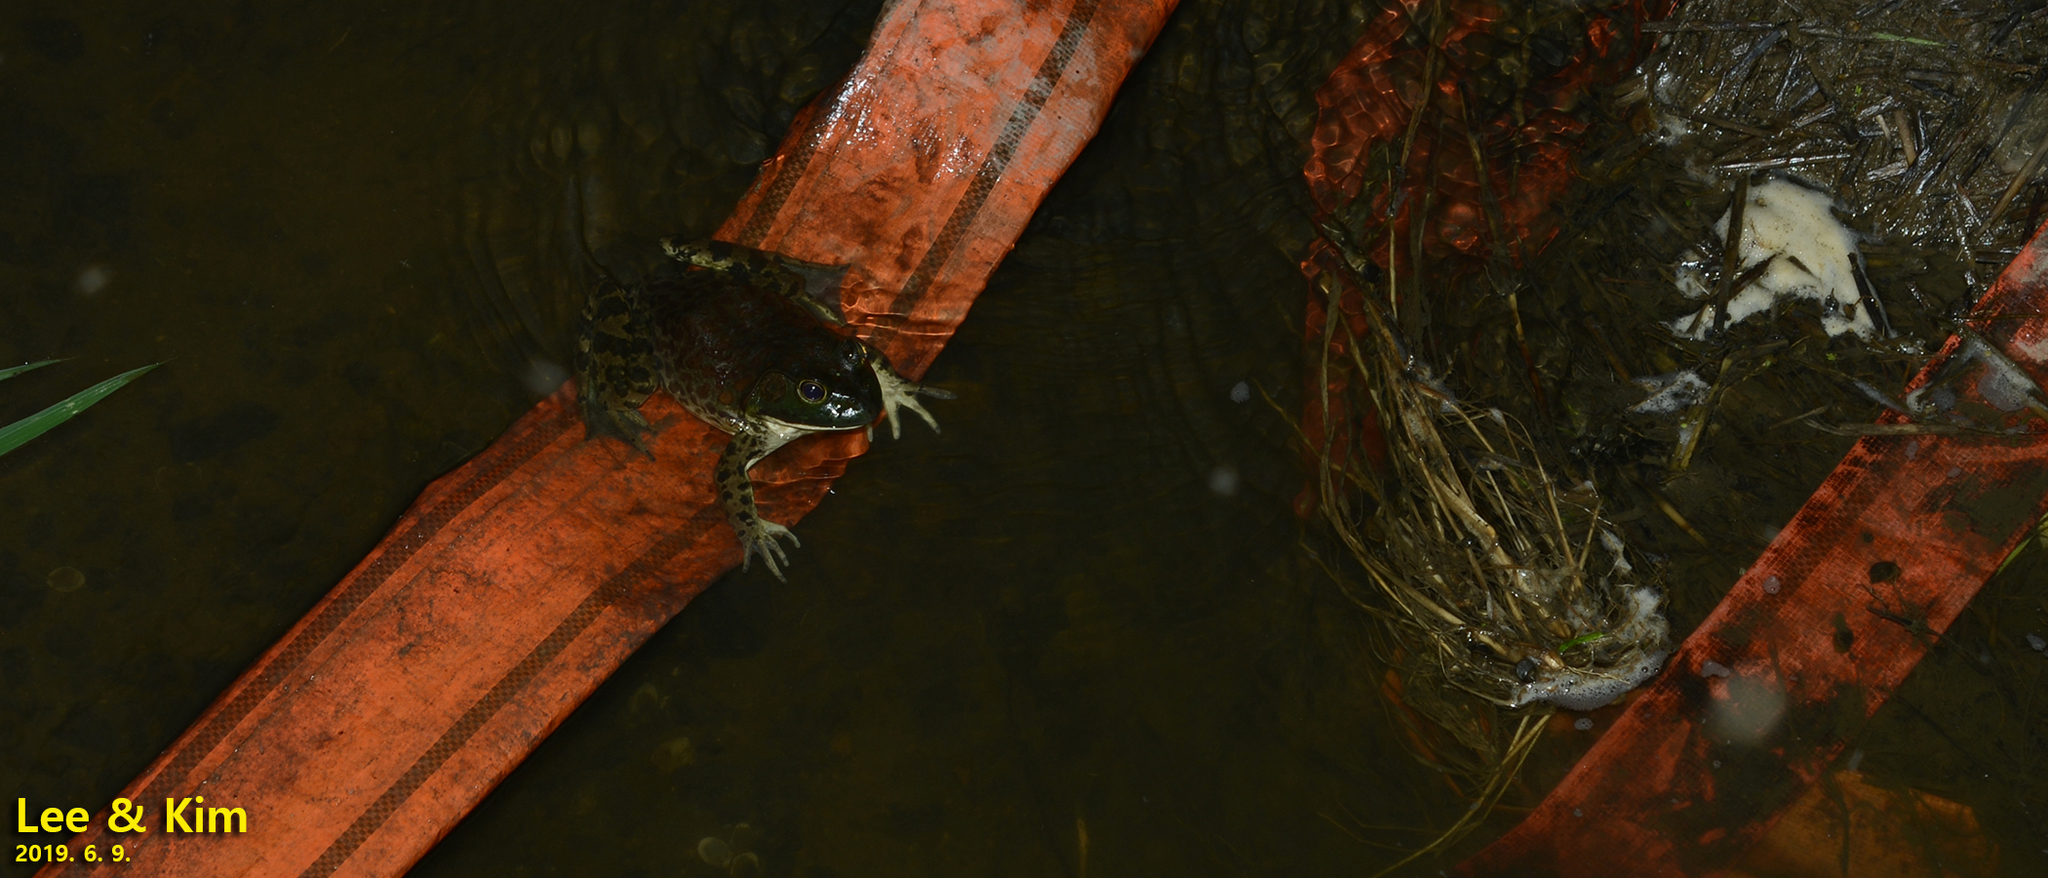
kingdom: Animalia
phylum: Chordata
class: Amphibia
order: Anura
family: Ranidae
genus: Lithobates
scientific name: Lithobates catesbeianus
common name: American bullfrog
